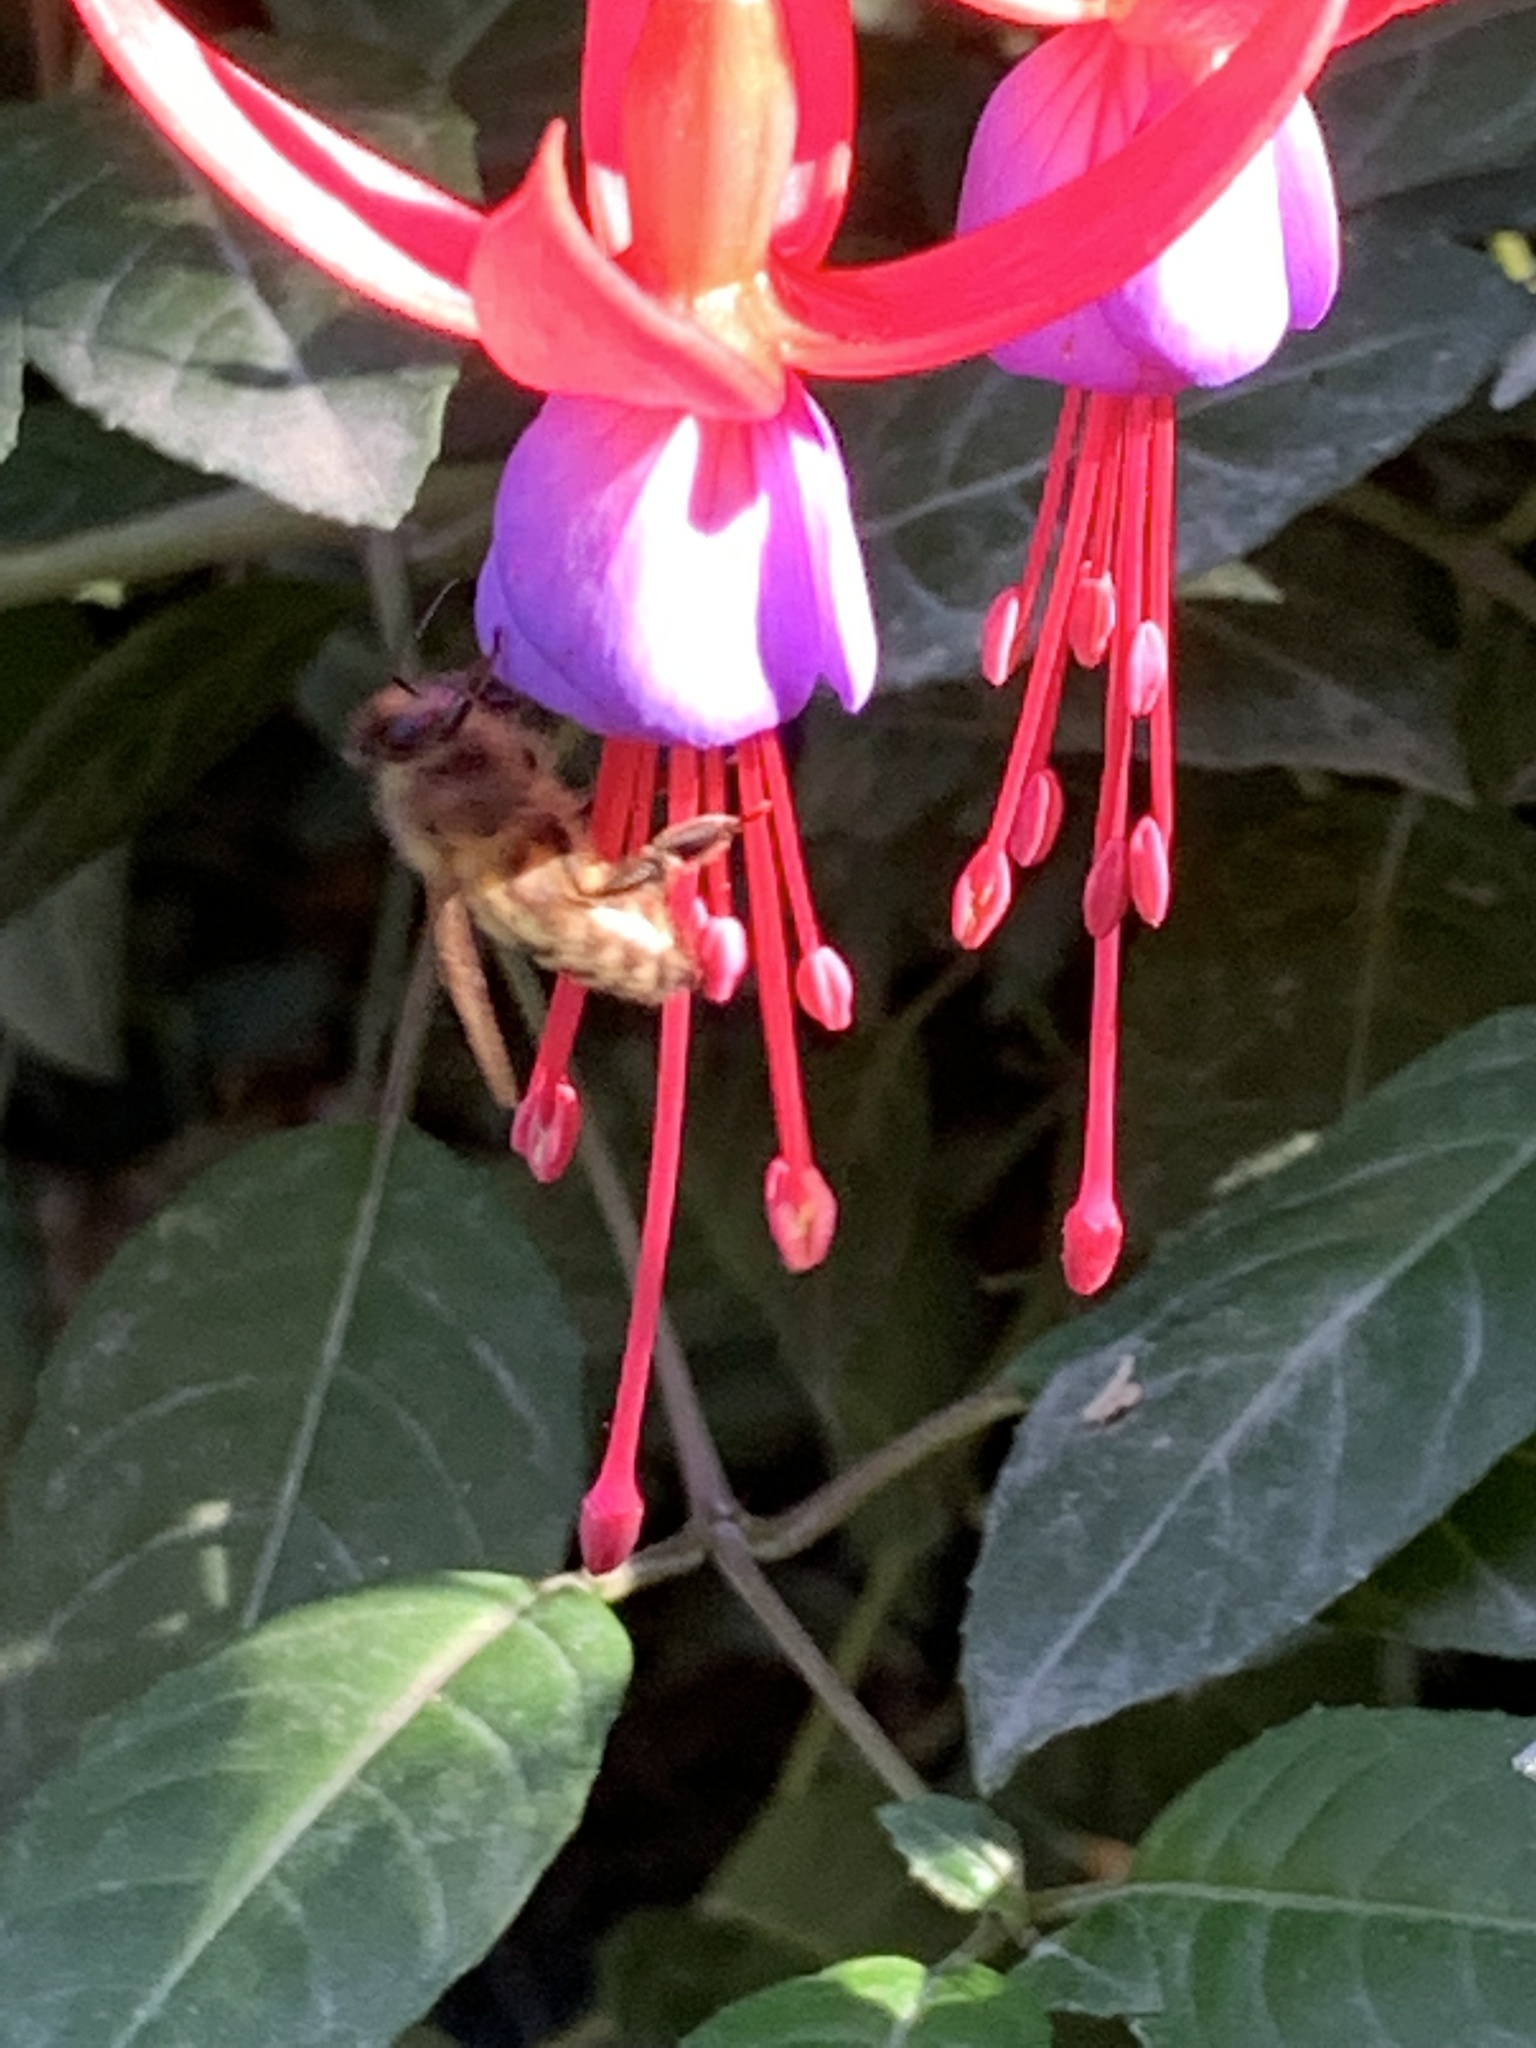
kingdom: Animalia
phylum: Arthropoda
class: Insecta
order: Hymenoptera
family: Apidae
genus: Apis
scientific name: Apis mellifera
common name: Honey bee
